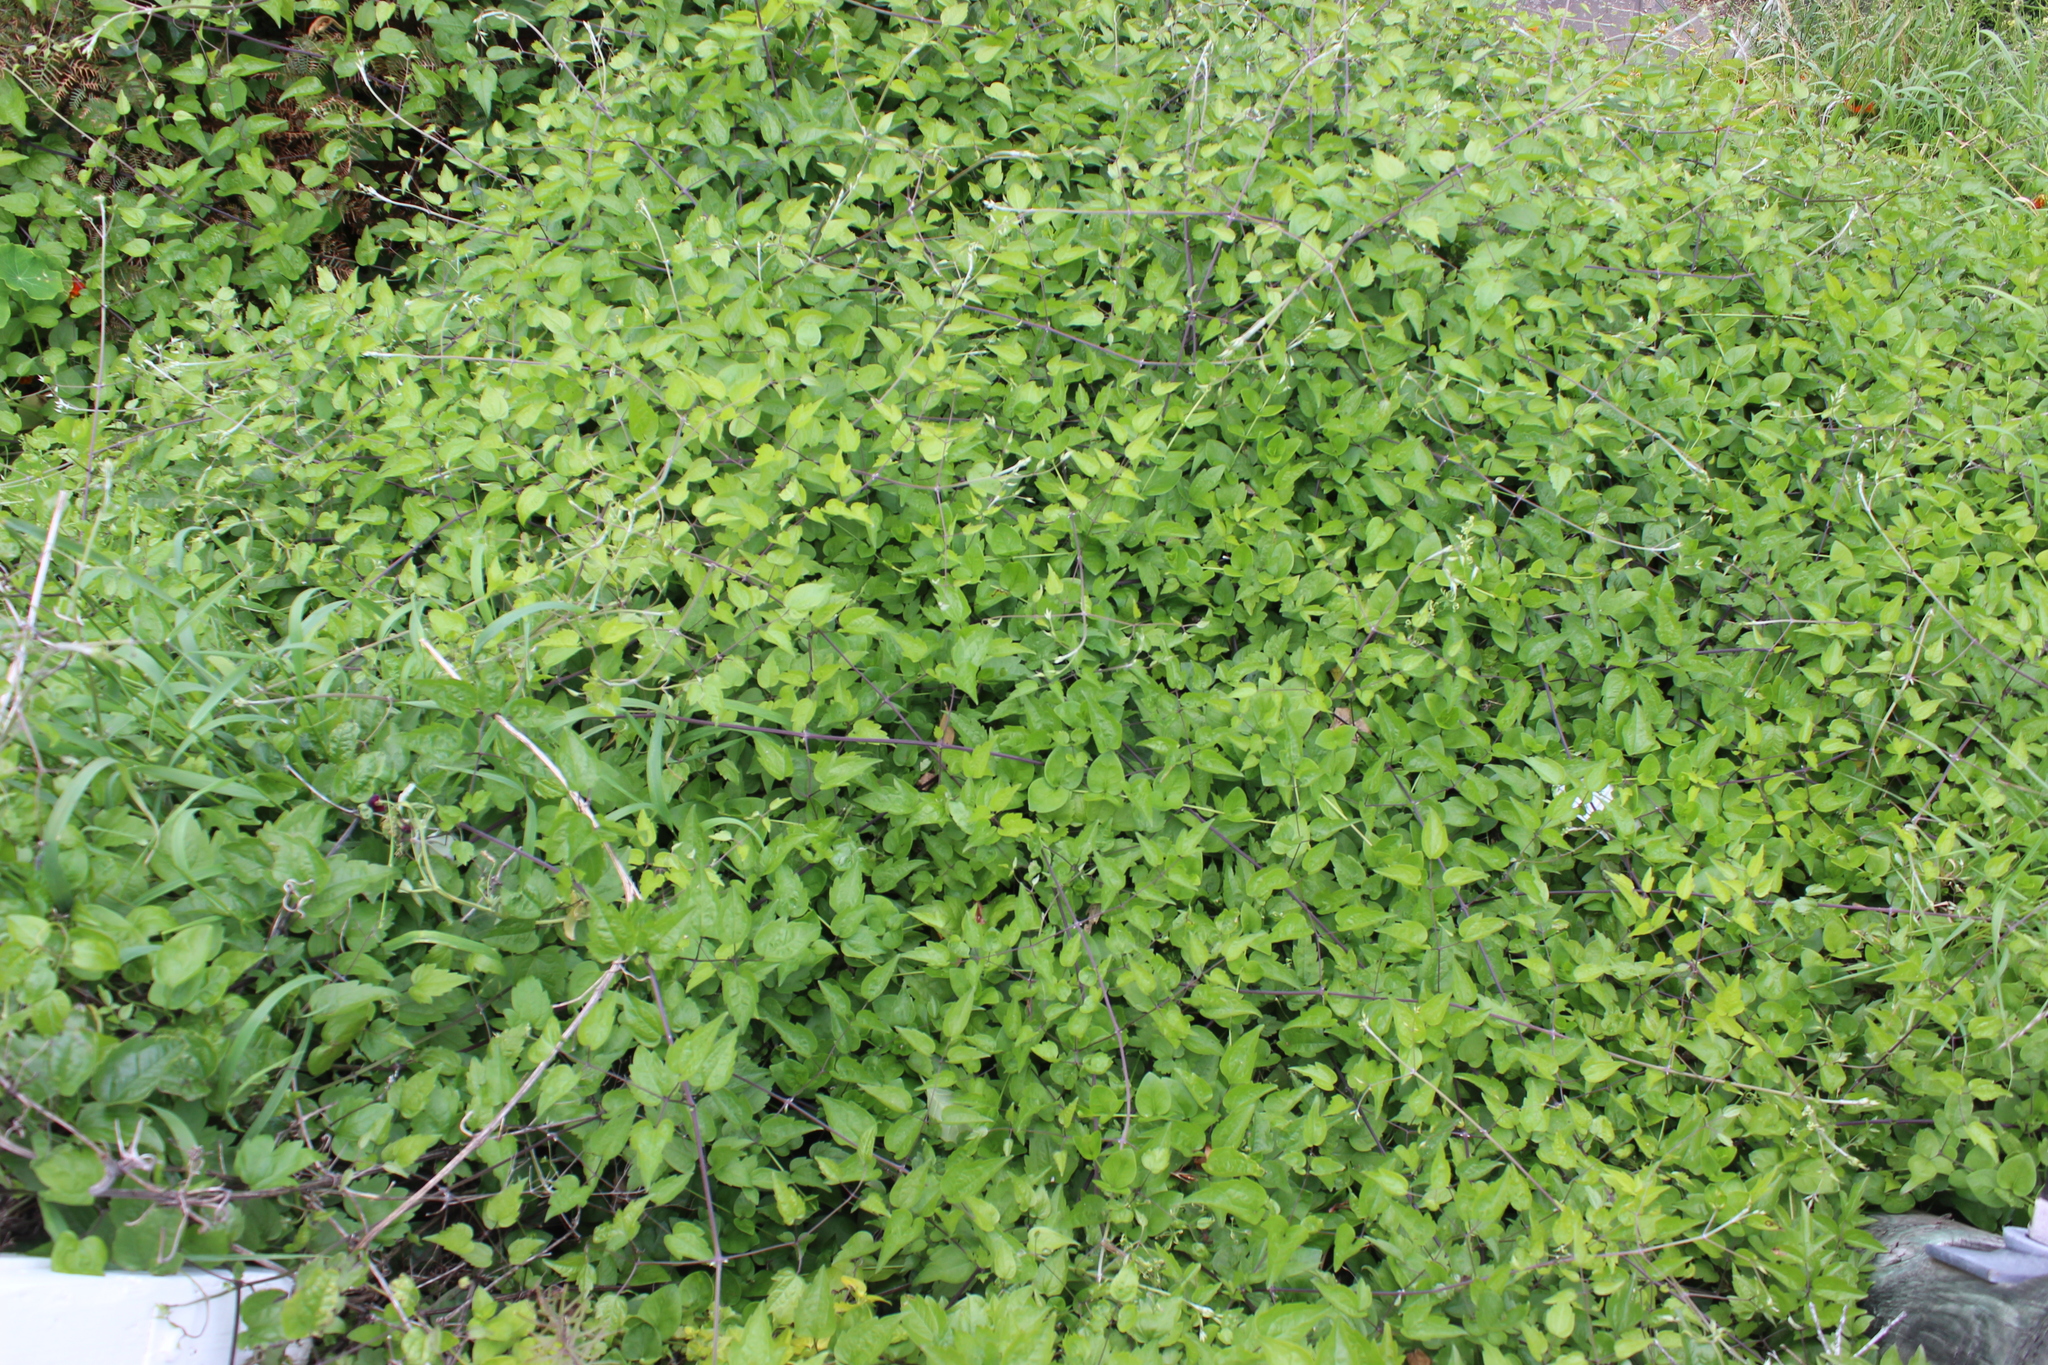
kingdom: Plantae
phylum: Tracheophyta
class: Magnoliopsida
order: Ranunculales
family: Ranunculaceae
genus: Clematis
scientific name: Clematis vitalba
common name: Evergreen clematis
